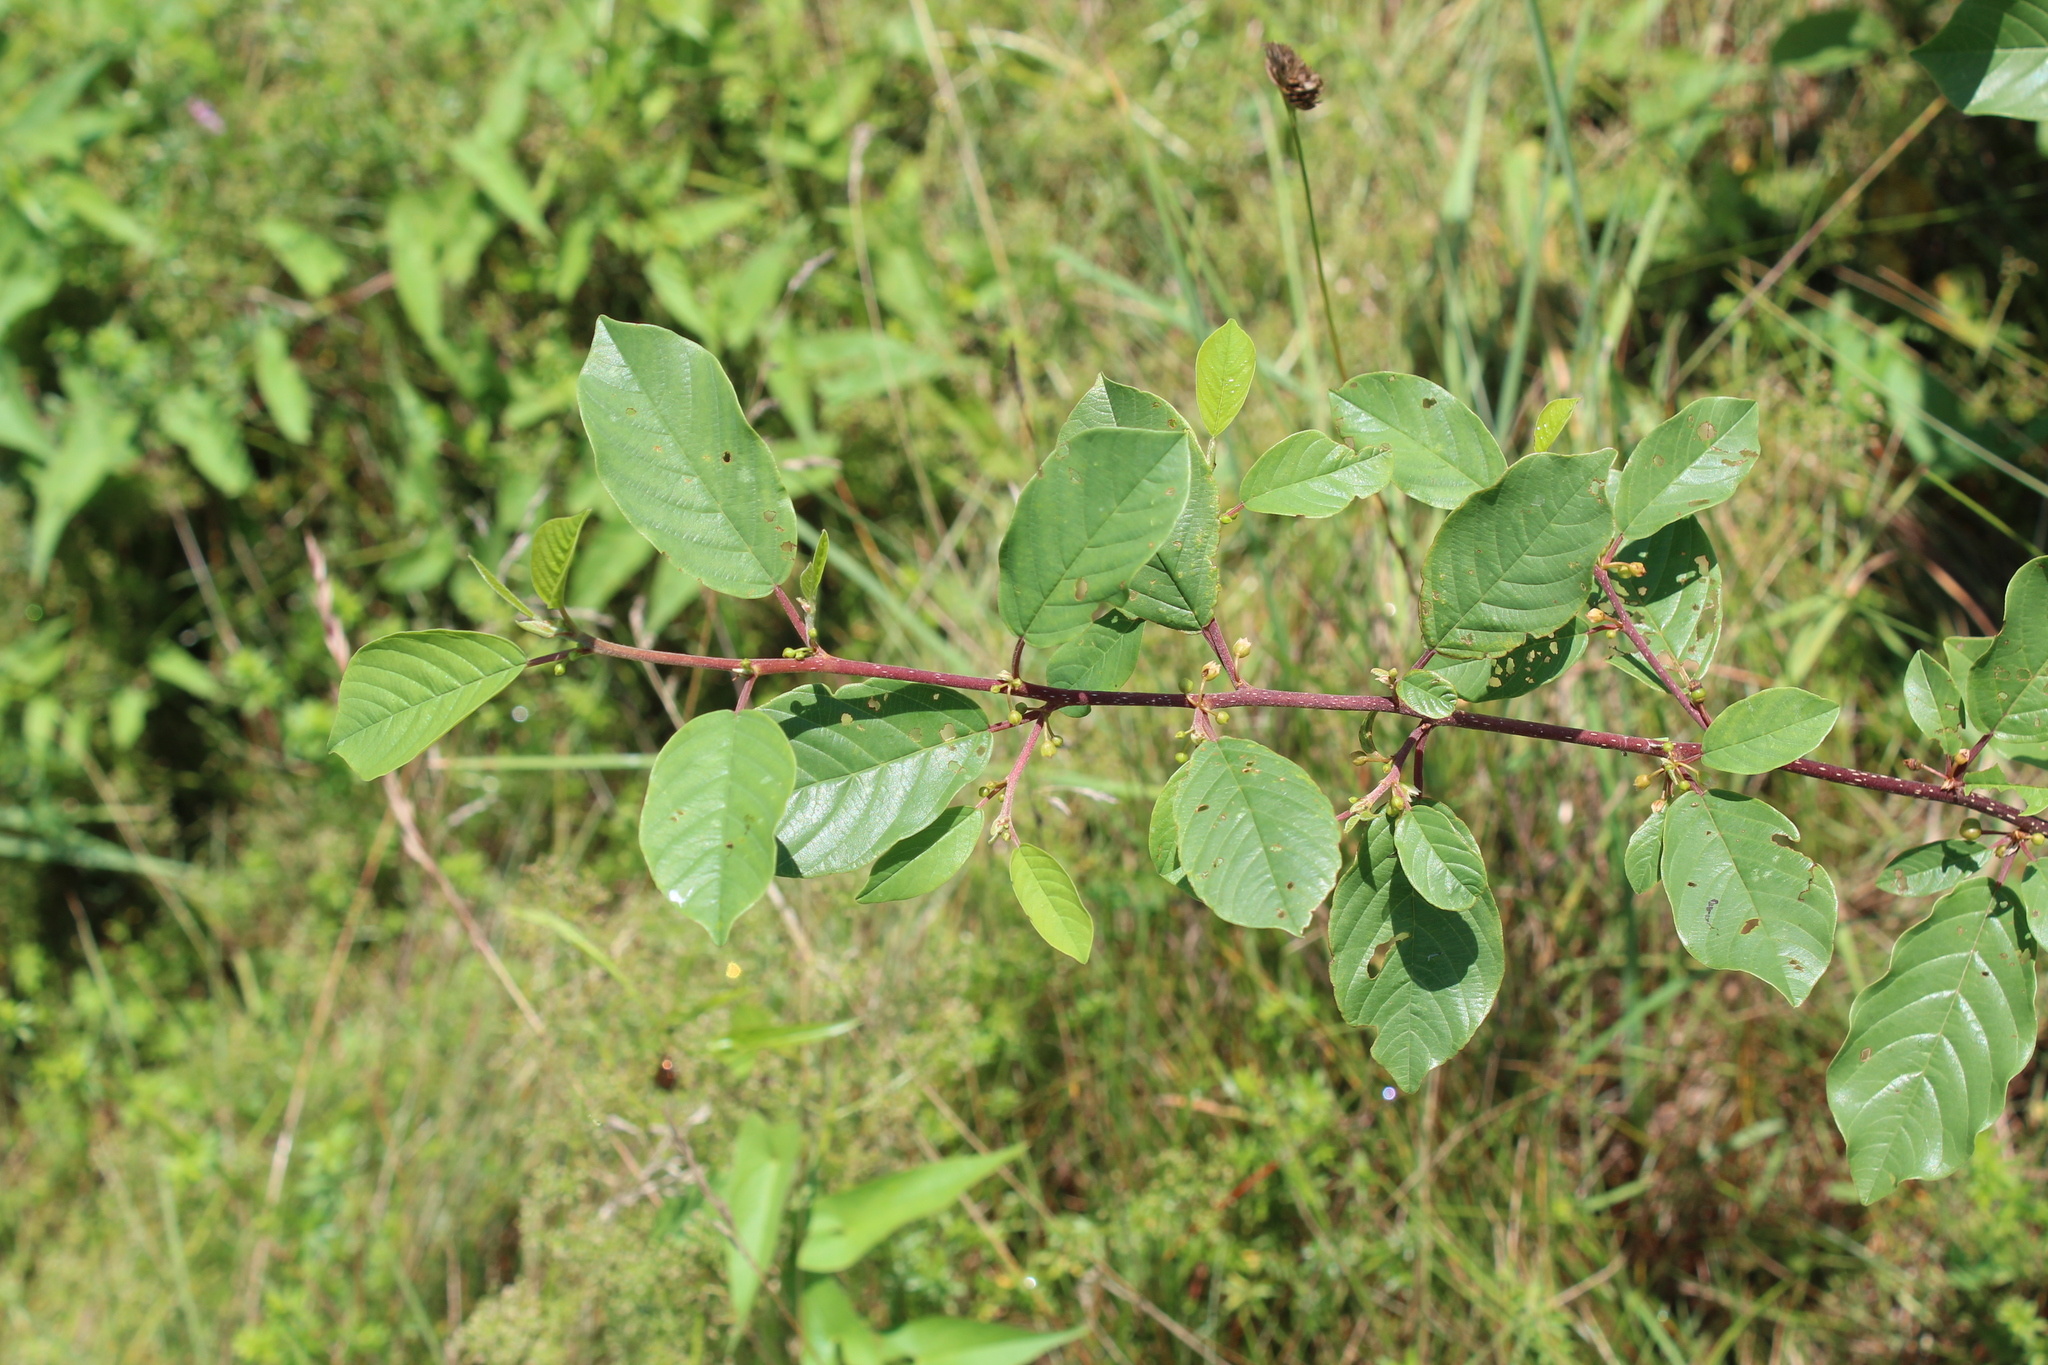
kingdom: Plantae
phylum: Tracheophyta
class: Magnoliopsida
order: Rosales
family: Rhamnaceae
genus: Frangula
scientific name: Frangula alnus
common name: Alder buckthorn
